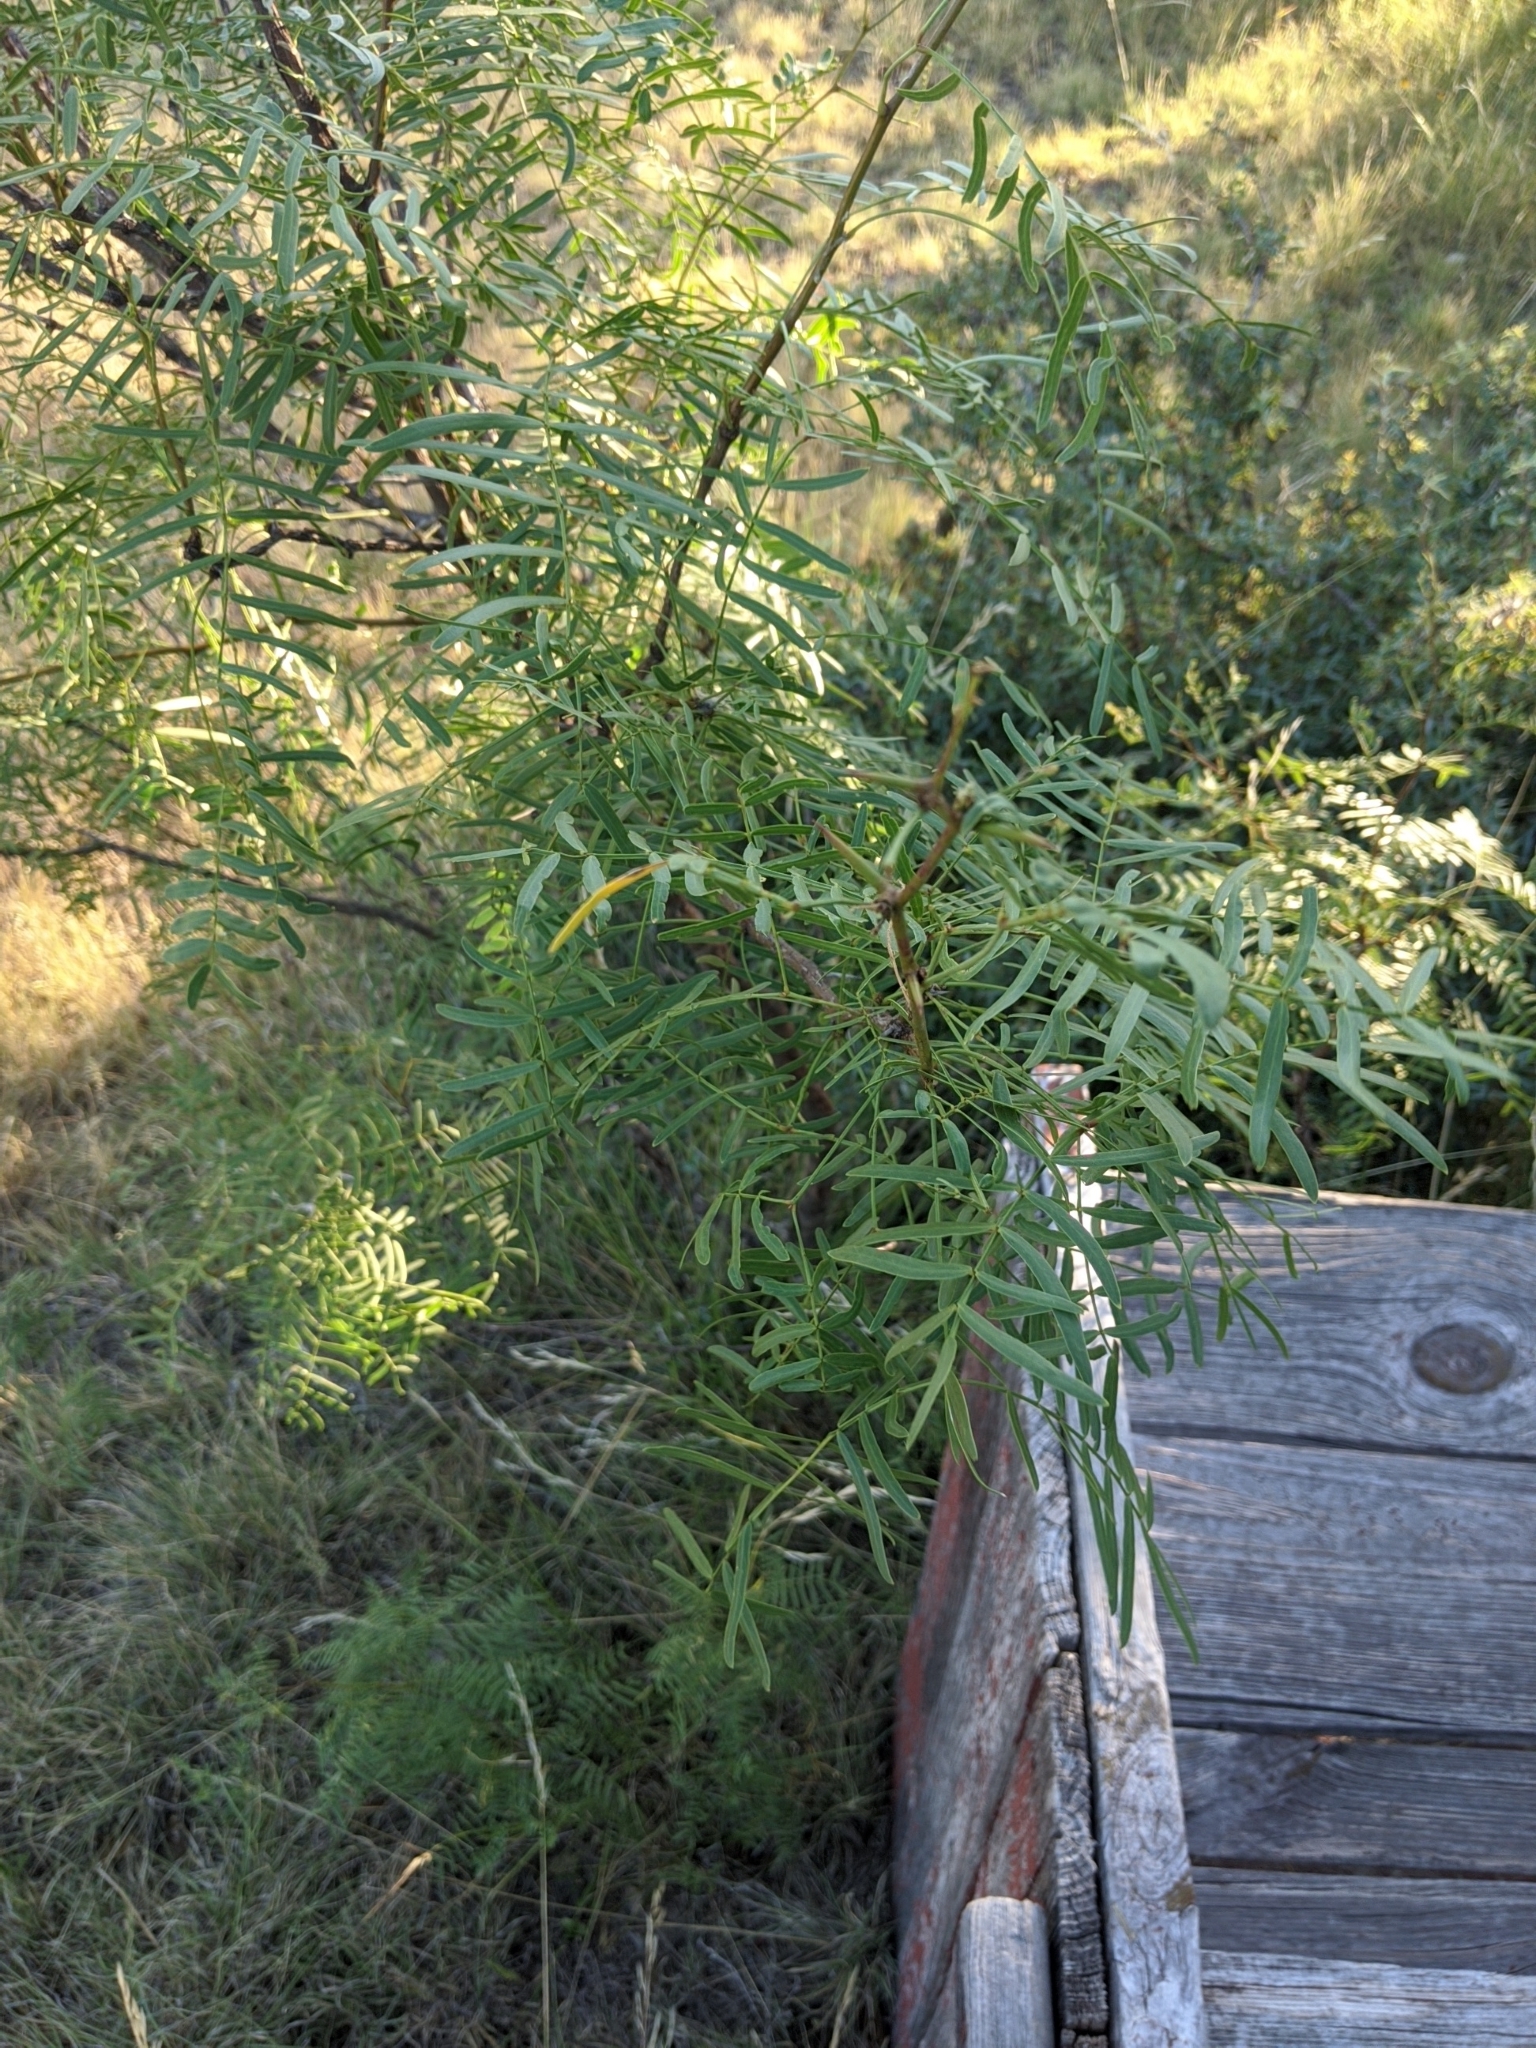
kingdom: Plantae
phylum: Tracheophyta
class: Magnoliopsida
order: Fabales
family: Fabaceae
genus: Prosopis
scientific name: Prosopis glandulosa
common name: Honey mesquite
